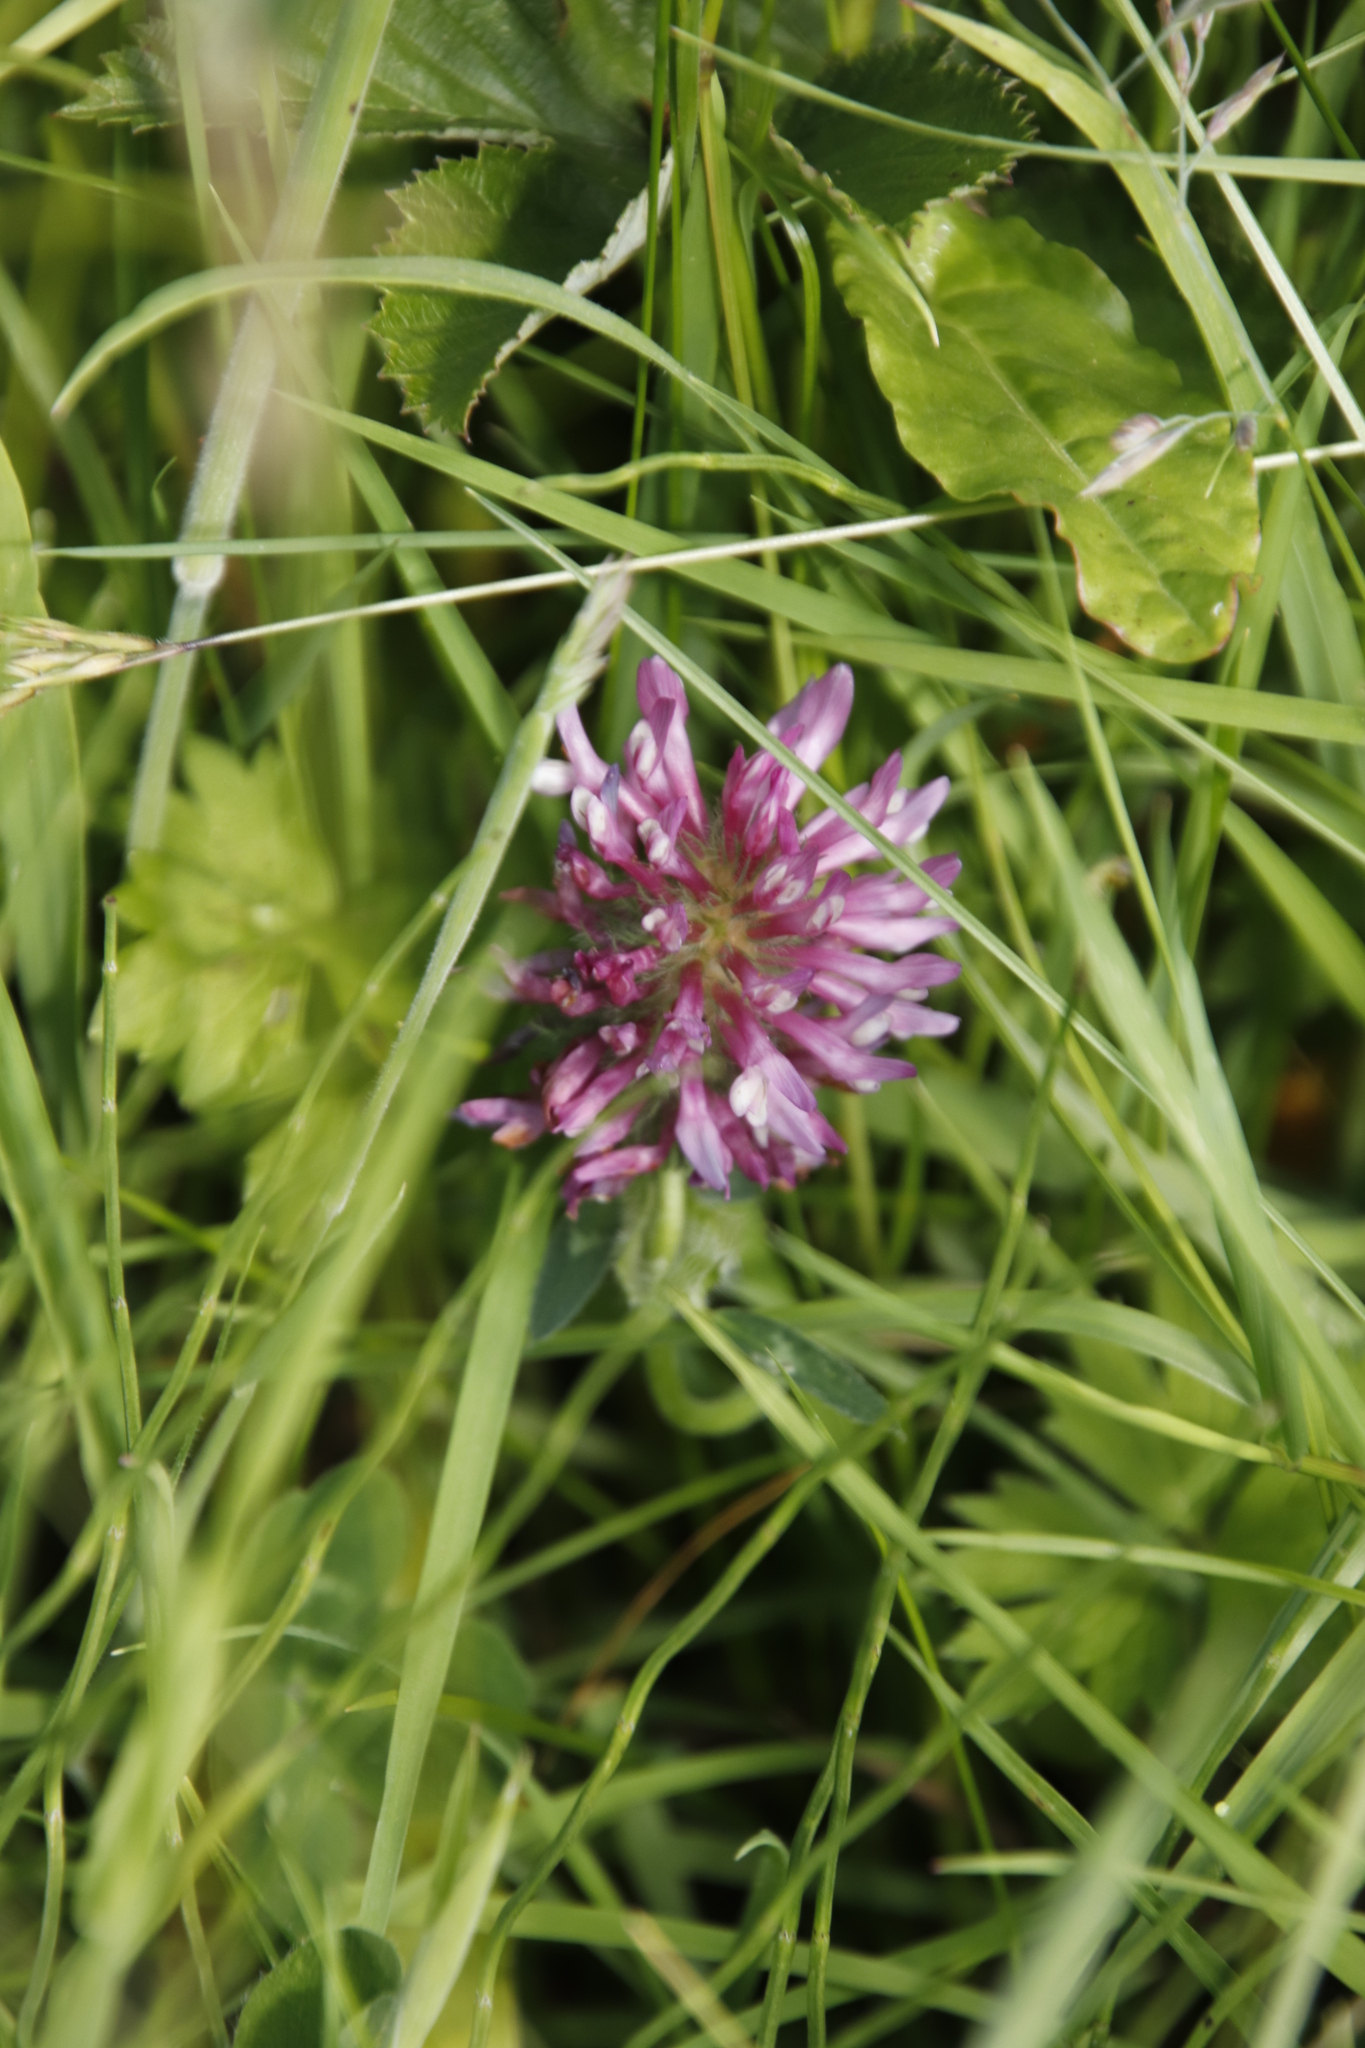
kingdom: Plantae
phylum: Tracheophyta
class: Magnoliopsida
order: Fabales
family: Fabaceae
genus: Trifolium
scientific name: Trifolium pratense
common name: Red clover
